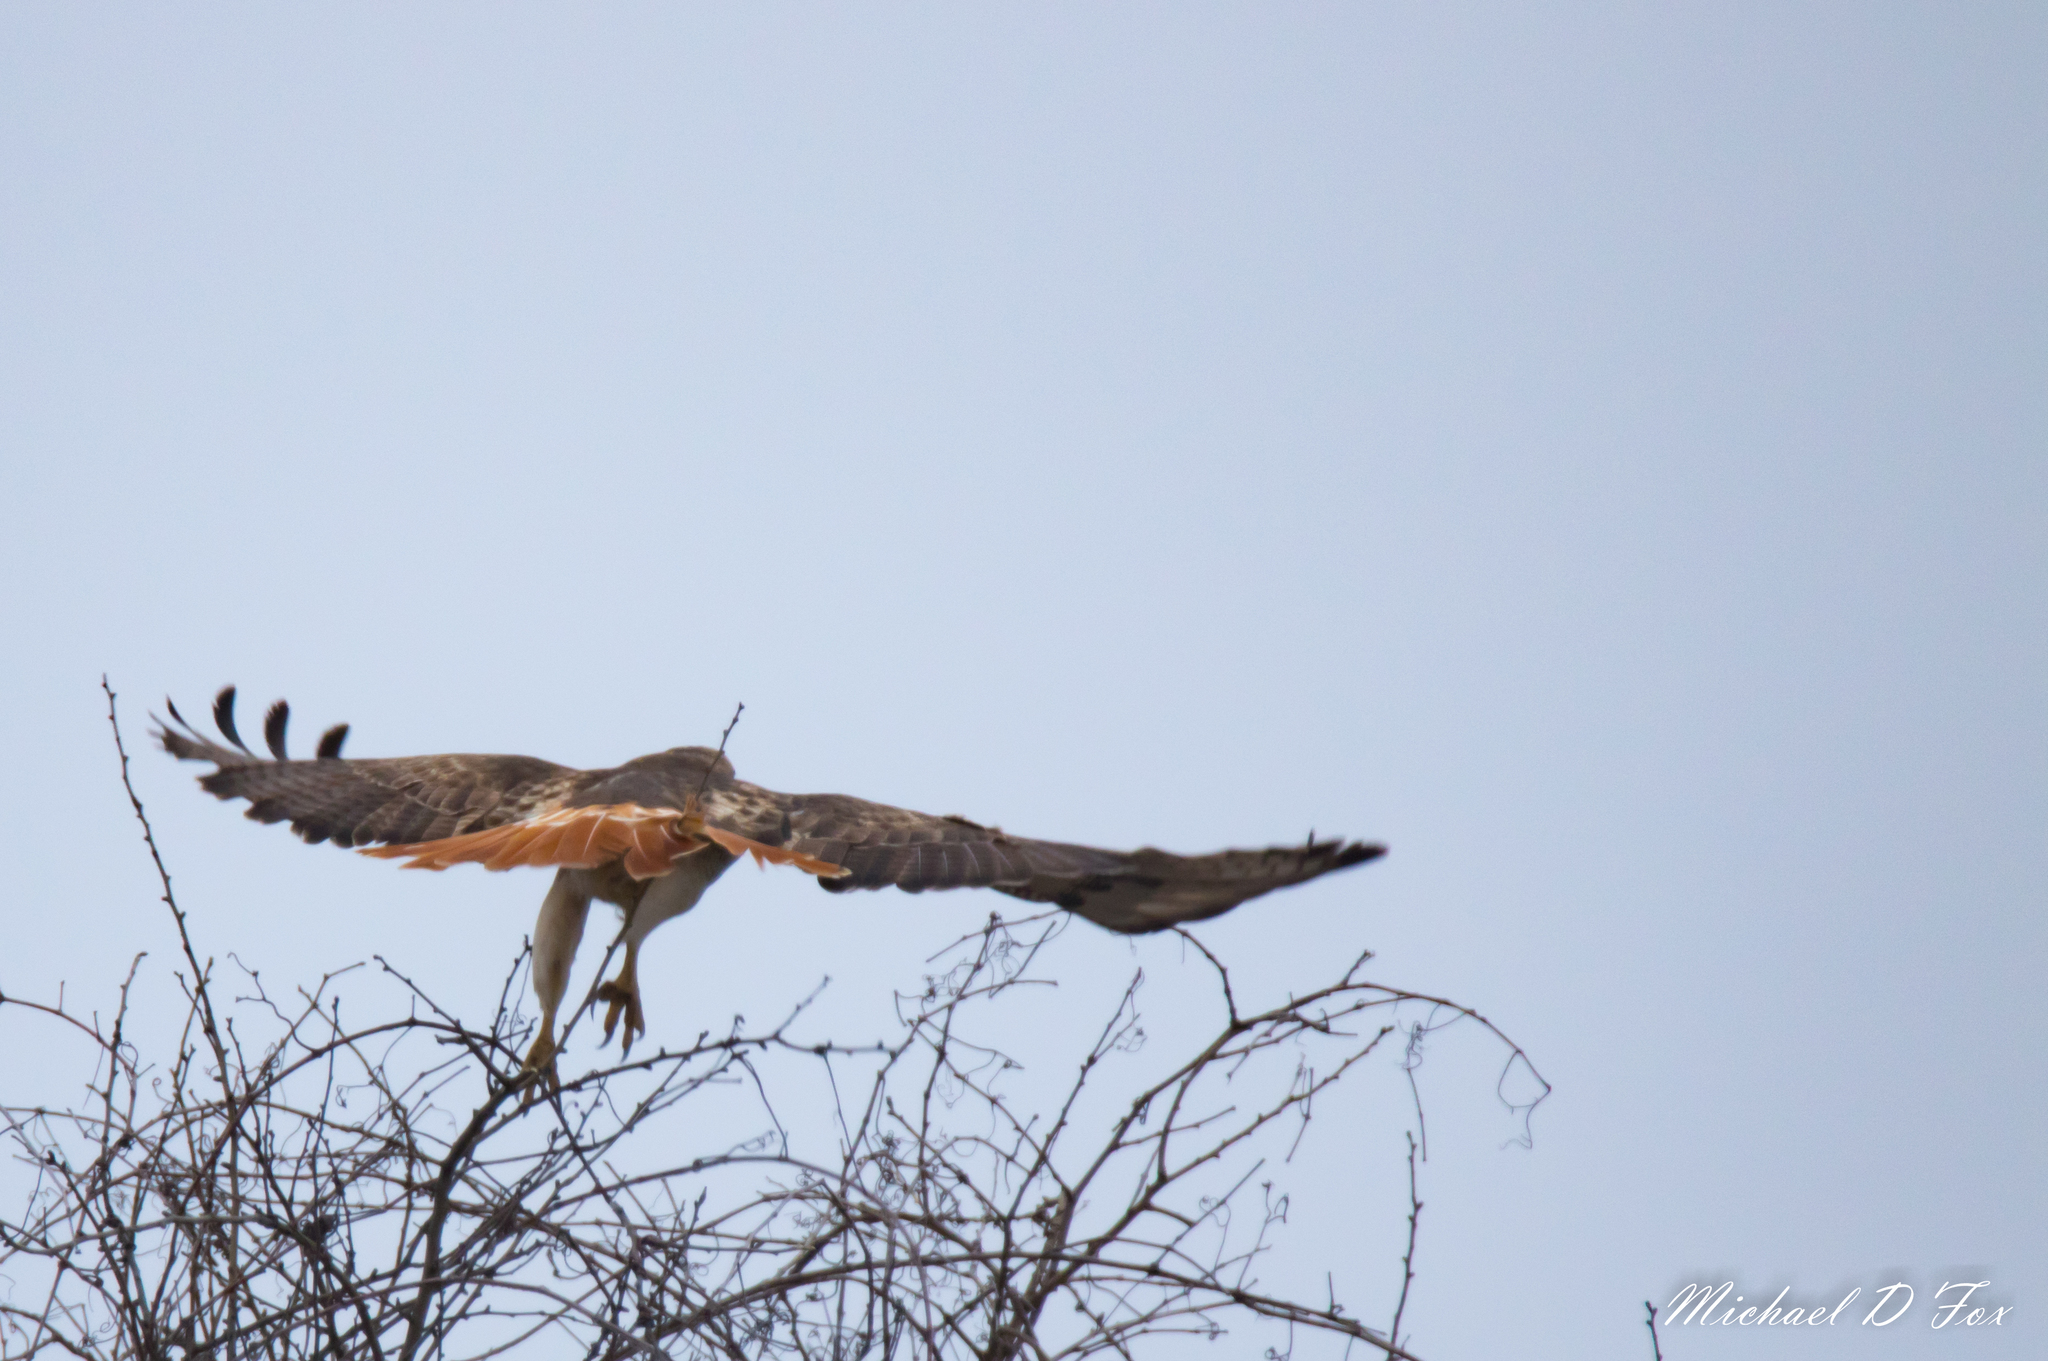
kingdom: Animalia
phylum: Chordata
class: Aves
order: Accipitriformes
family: Accipitridae
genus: Buteo
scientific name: Buteo jamaicensis
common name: Red-tailed hawk
